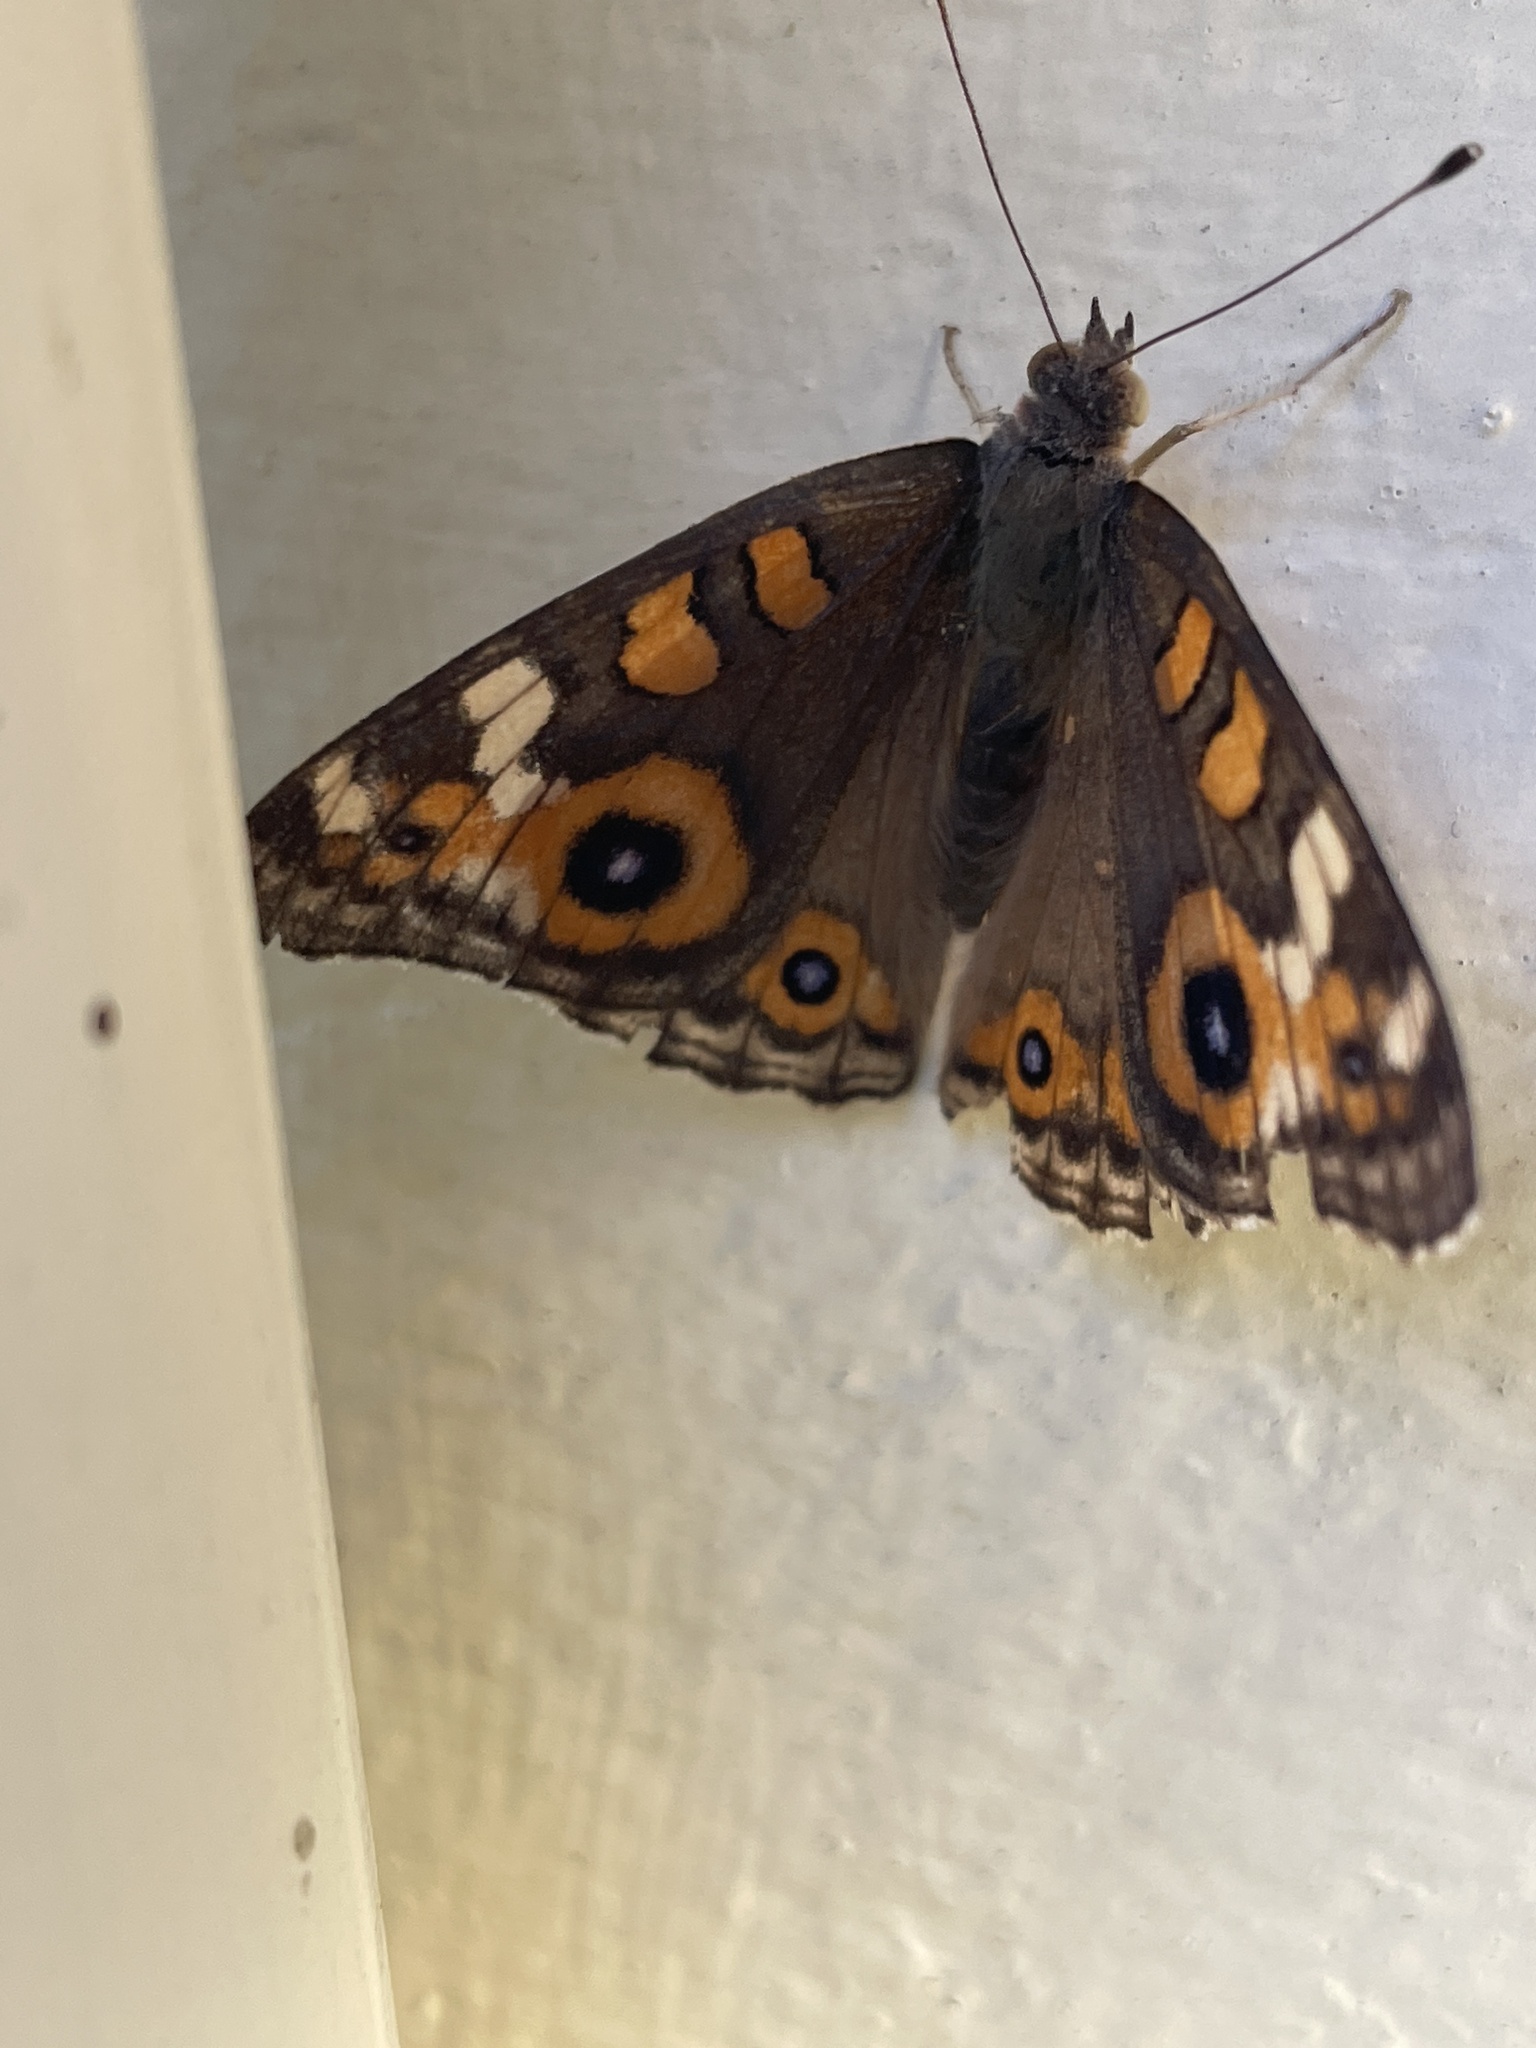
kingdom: Animalia
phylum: Arthropoda
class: Insecta
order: Lepidoptera
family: Nymphalidae
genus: Junonia
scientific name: Junonia villida
